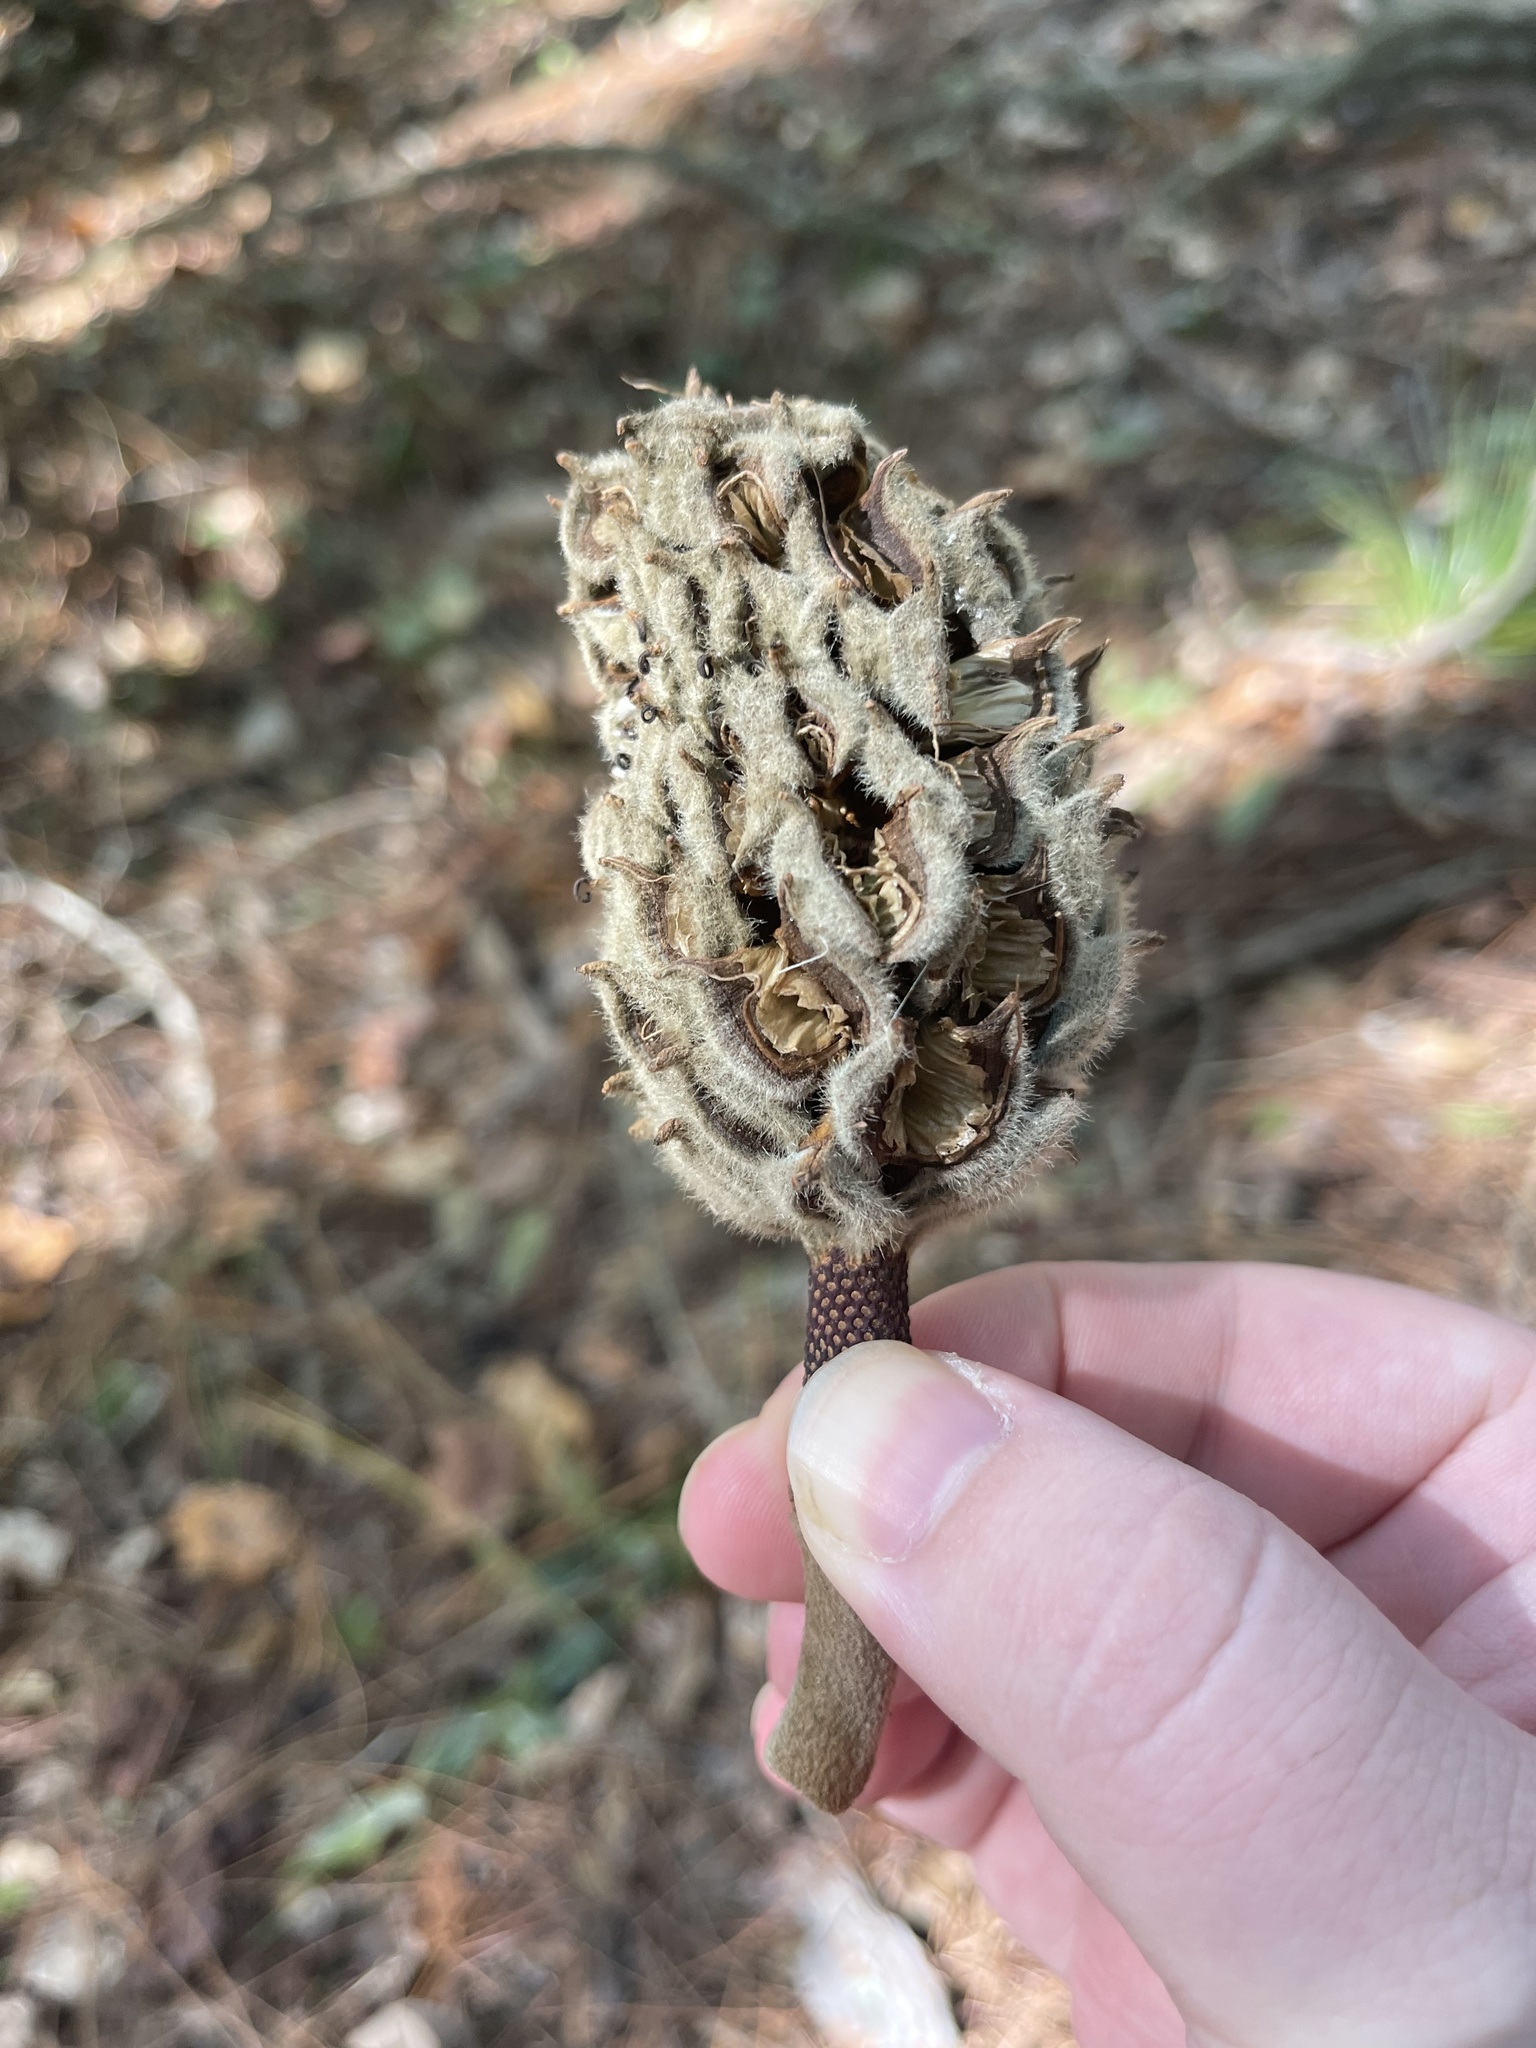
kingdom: Plantae
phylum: Tracheophyta
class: Magnoliopsida
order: Magnoliales
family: Magnoliaceae
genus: Magnolia
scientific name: Magnolia grandiflora
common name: Southern magnolia
